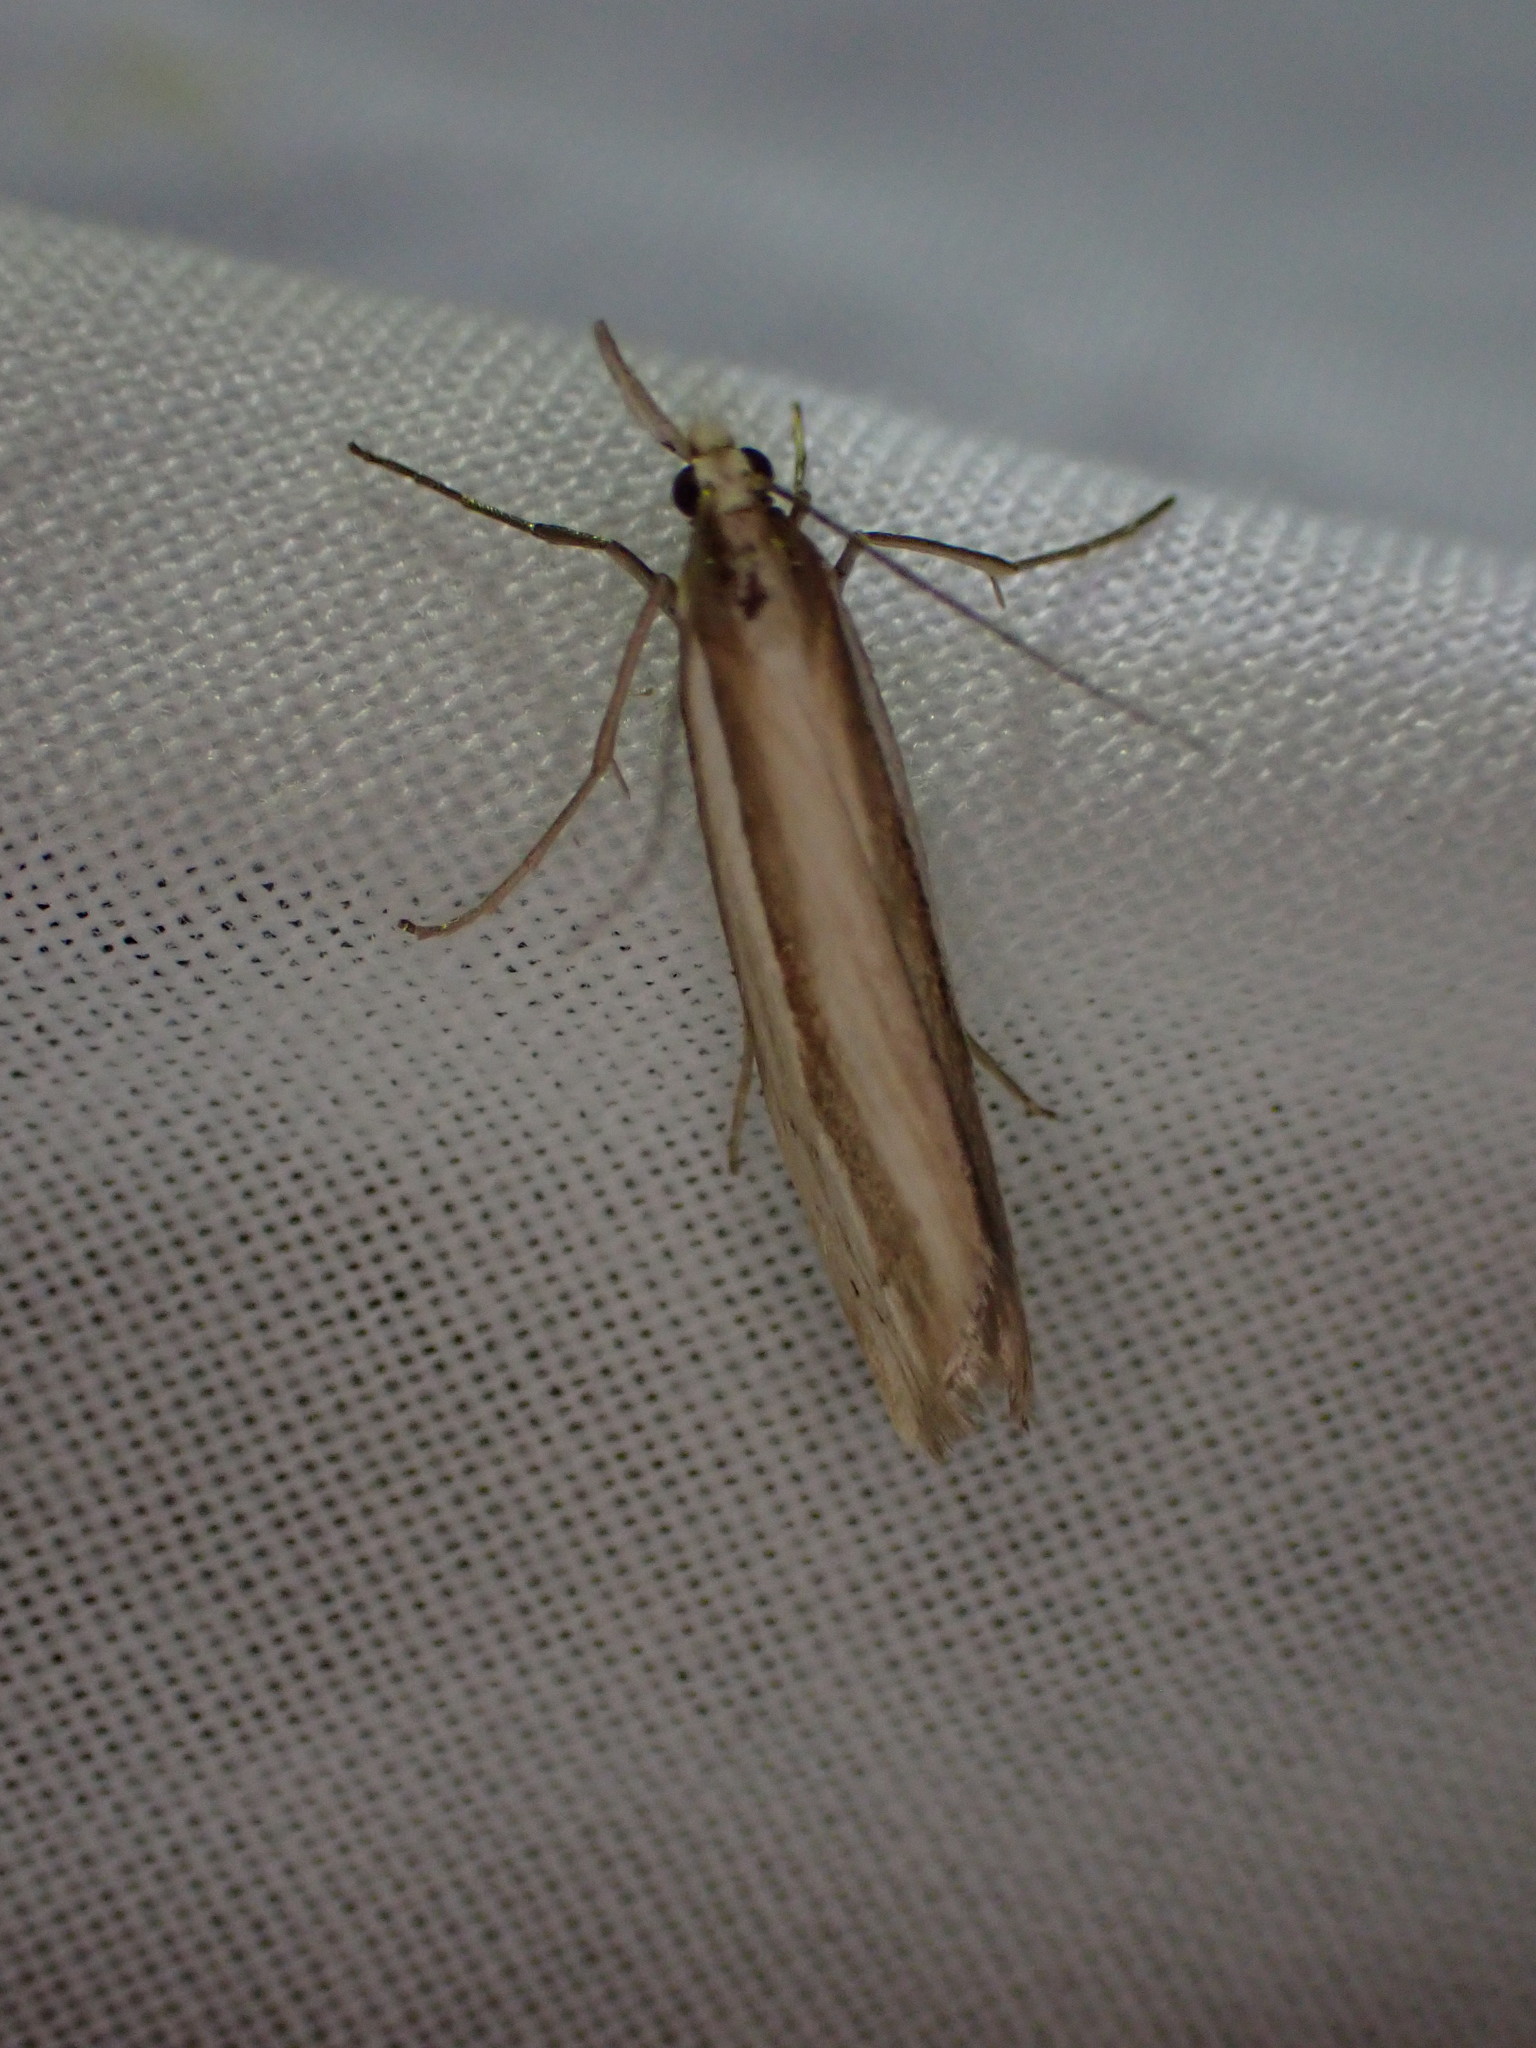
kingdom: Animalia
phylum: Arthropoda
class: Insecta
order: Lepidoptera
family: Crambidae
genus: Orocrambus
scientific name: Orocrambus ramosellus
